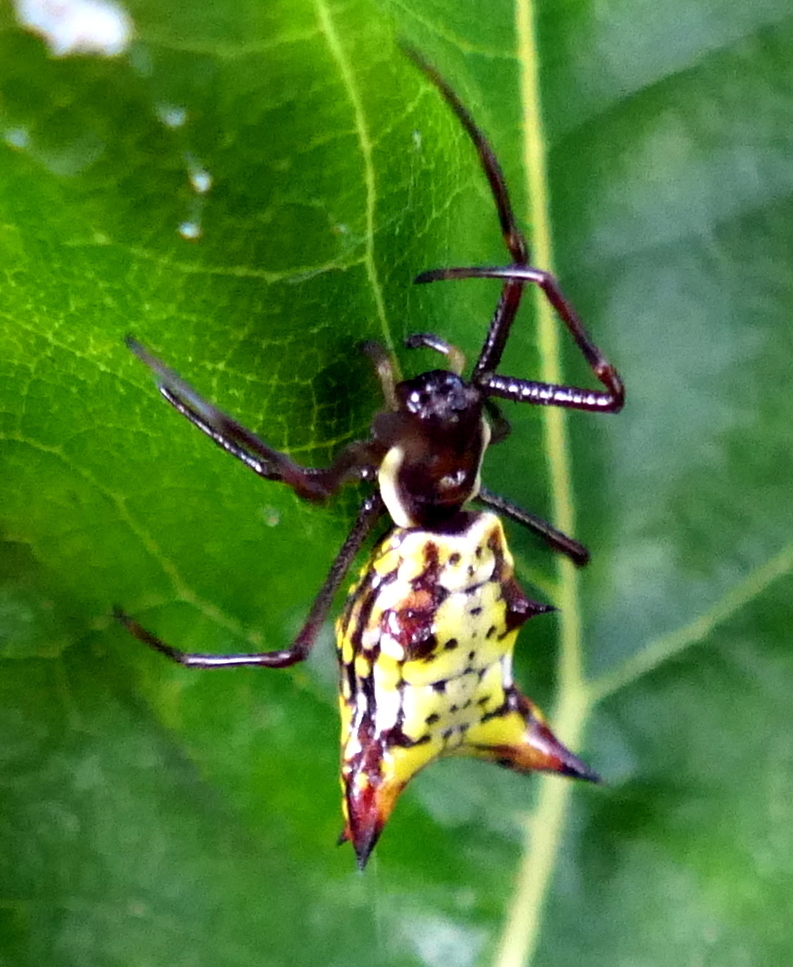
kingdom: Animalia
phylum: Arthropoda
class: Arachnida
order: Araneae
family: Araneidae
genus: Micrathena
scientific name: Micrathena fissispina
